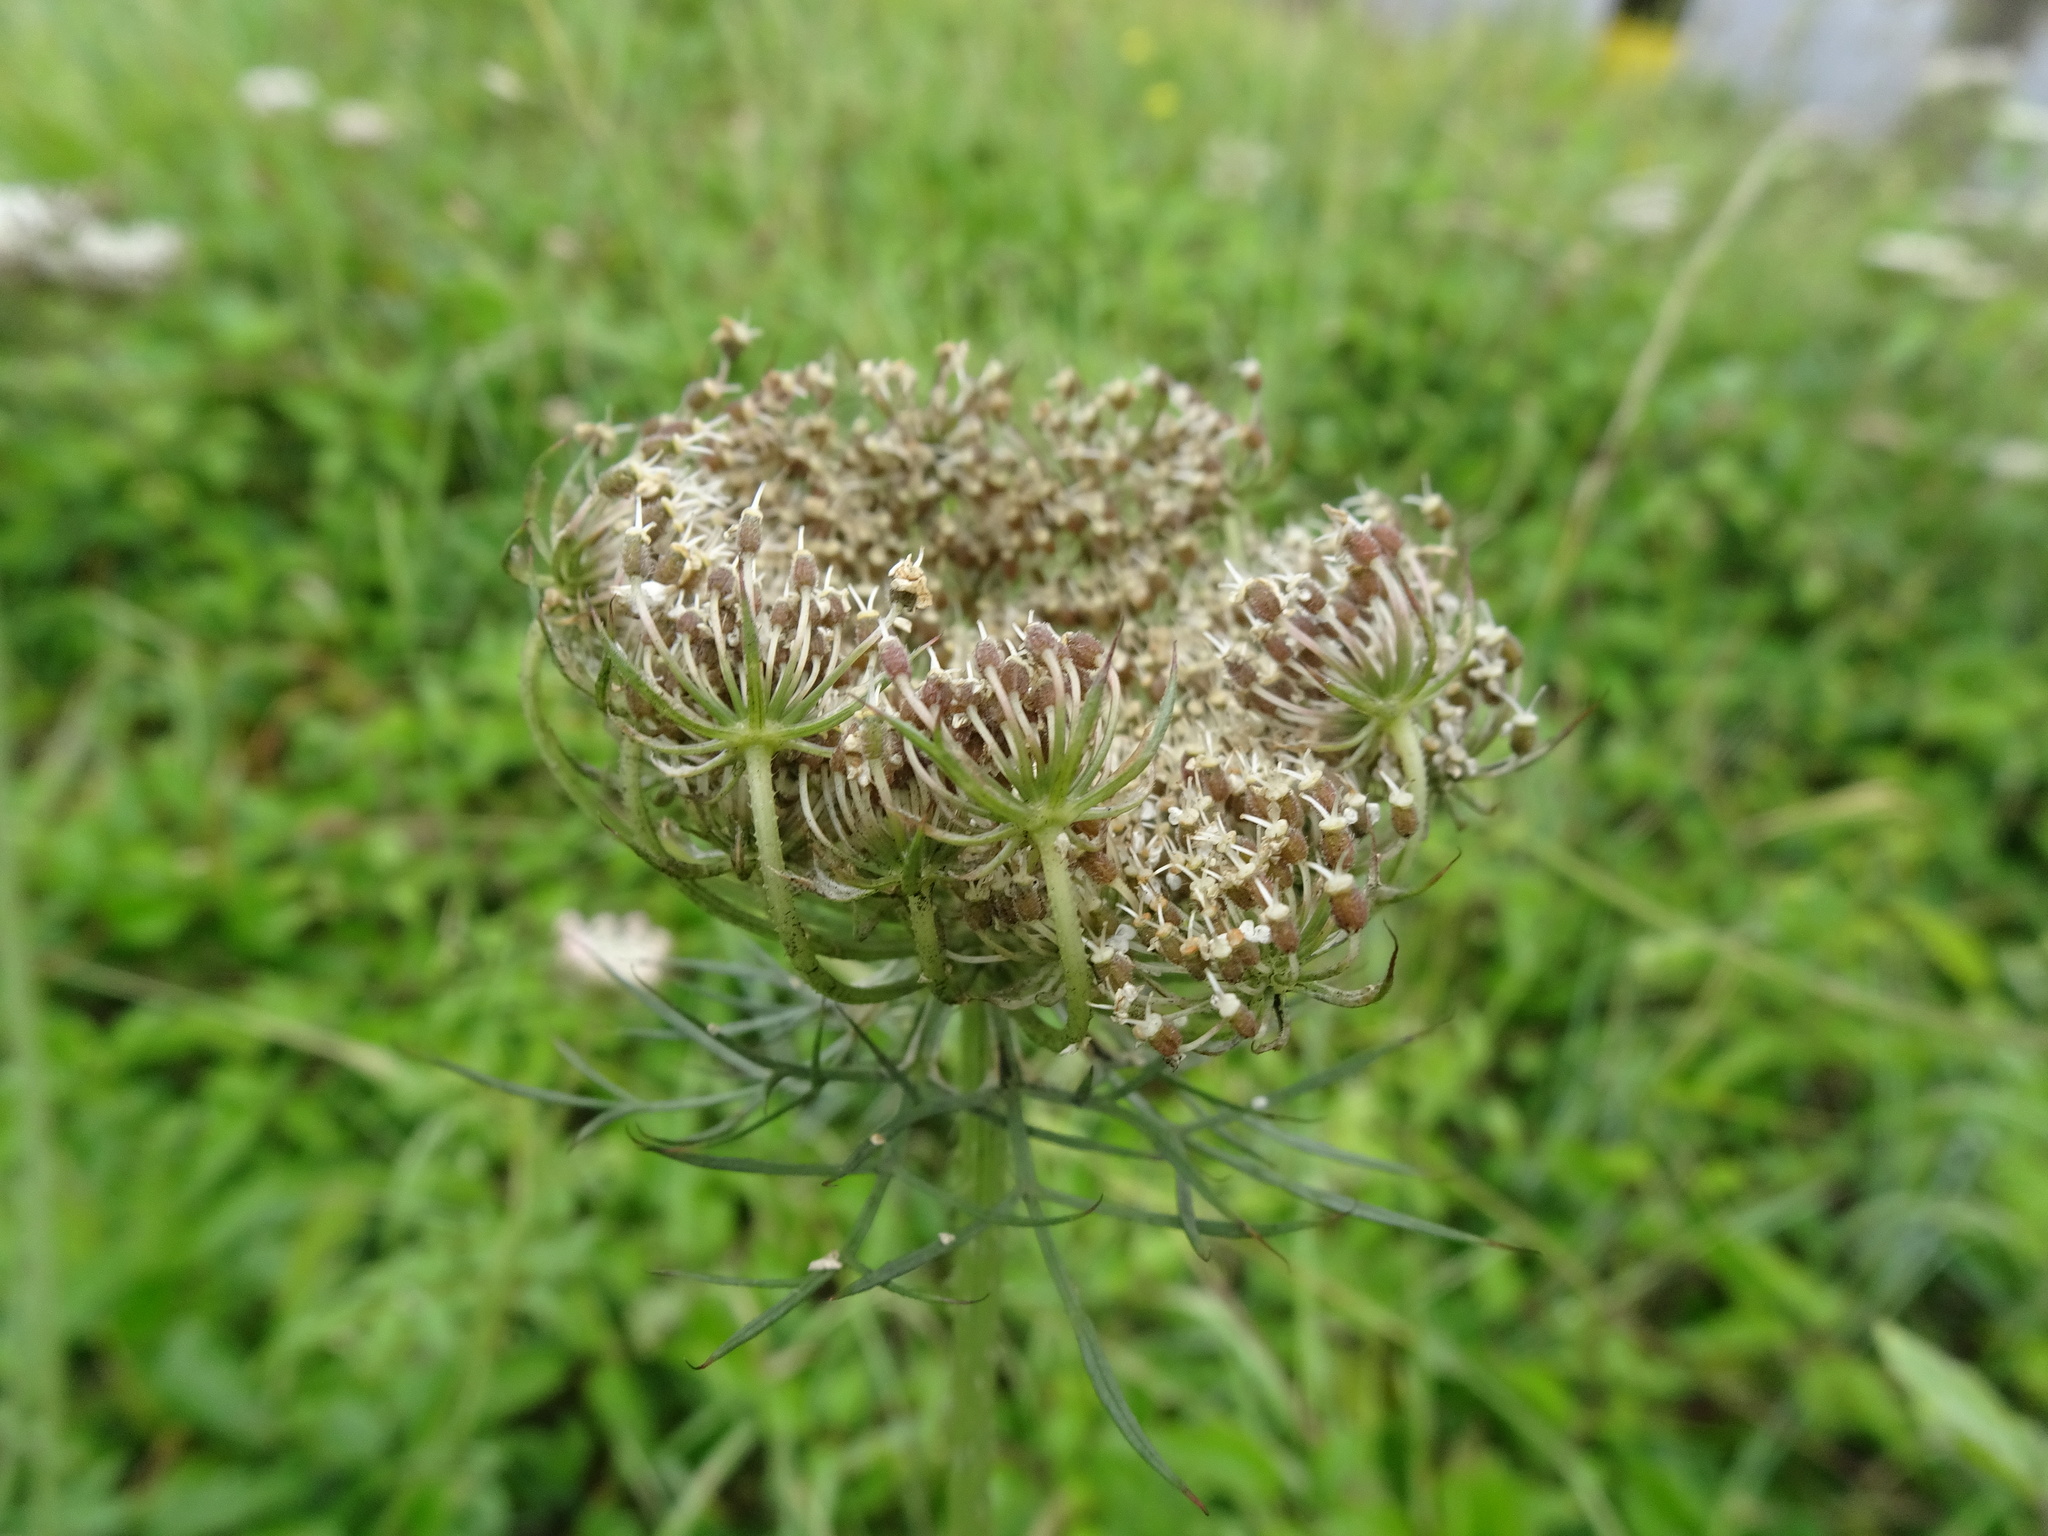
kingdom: Plantae
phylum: Tracheophyta
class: Magnoliopsida
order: Apiales
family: Apiaceae
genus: Daucus
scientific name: Daucus carota
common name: Wild carrot
